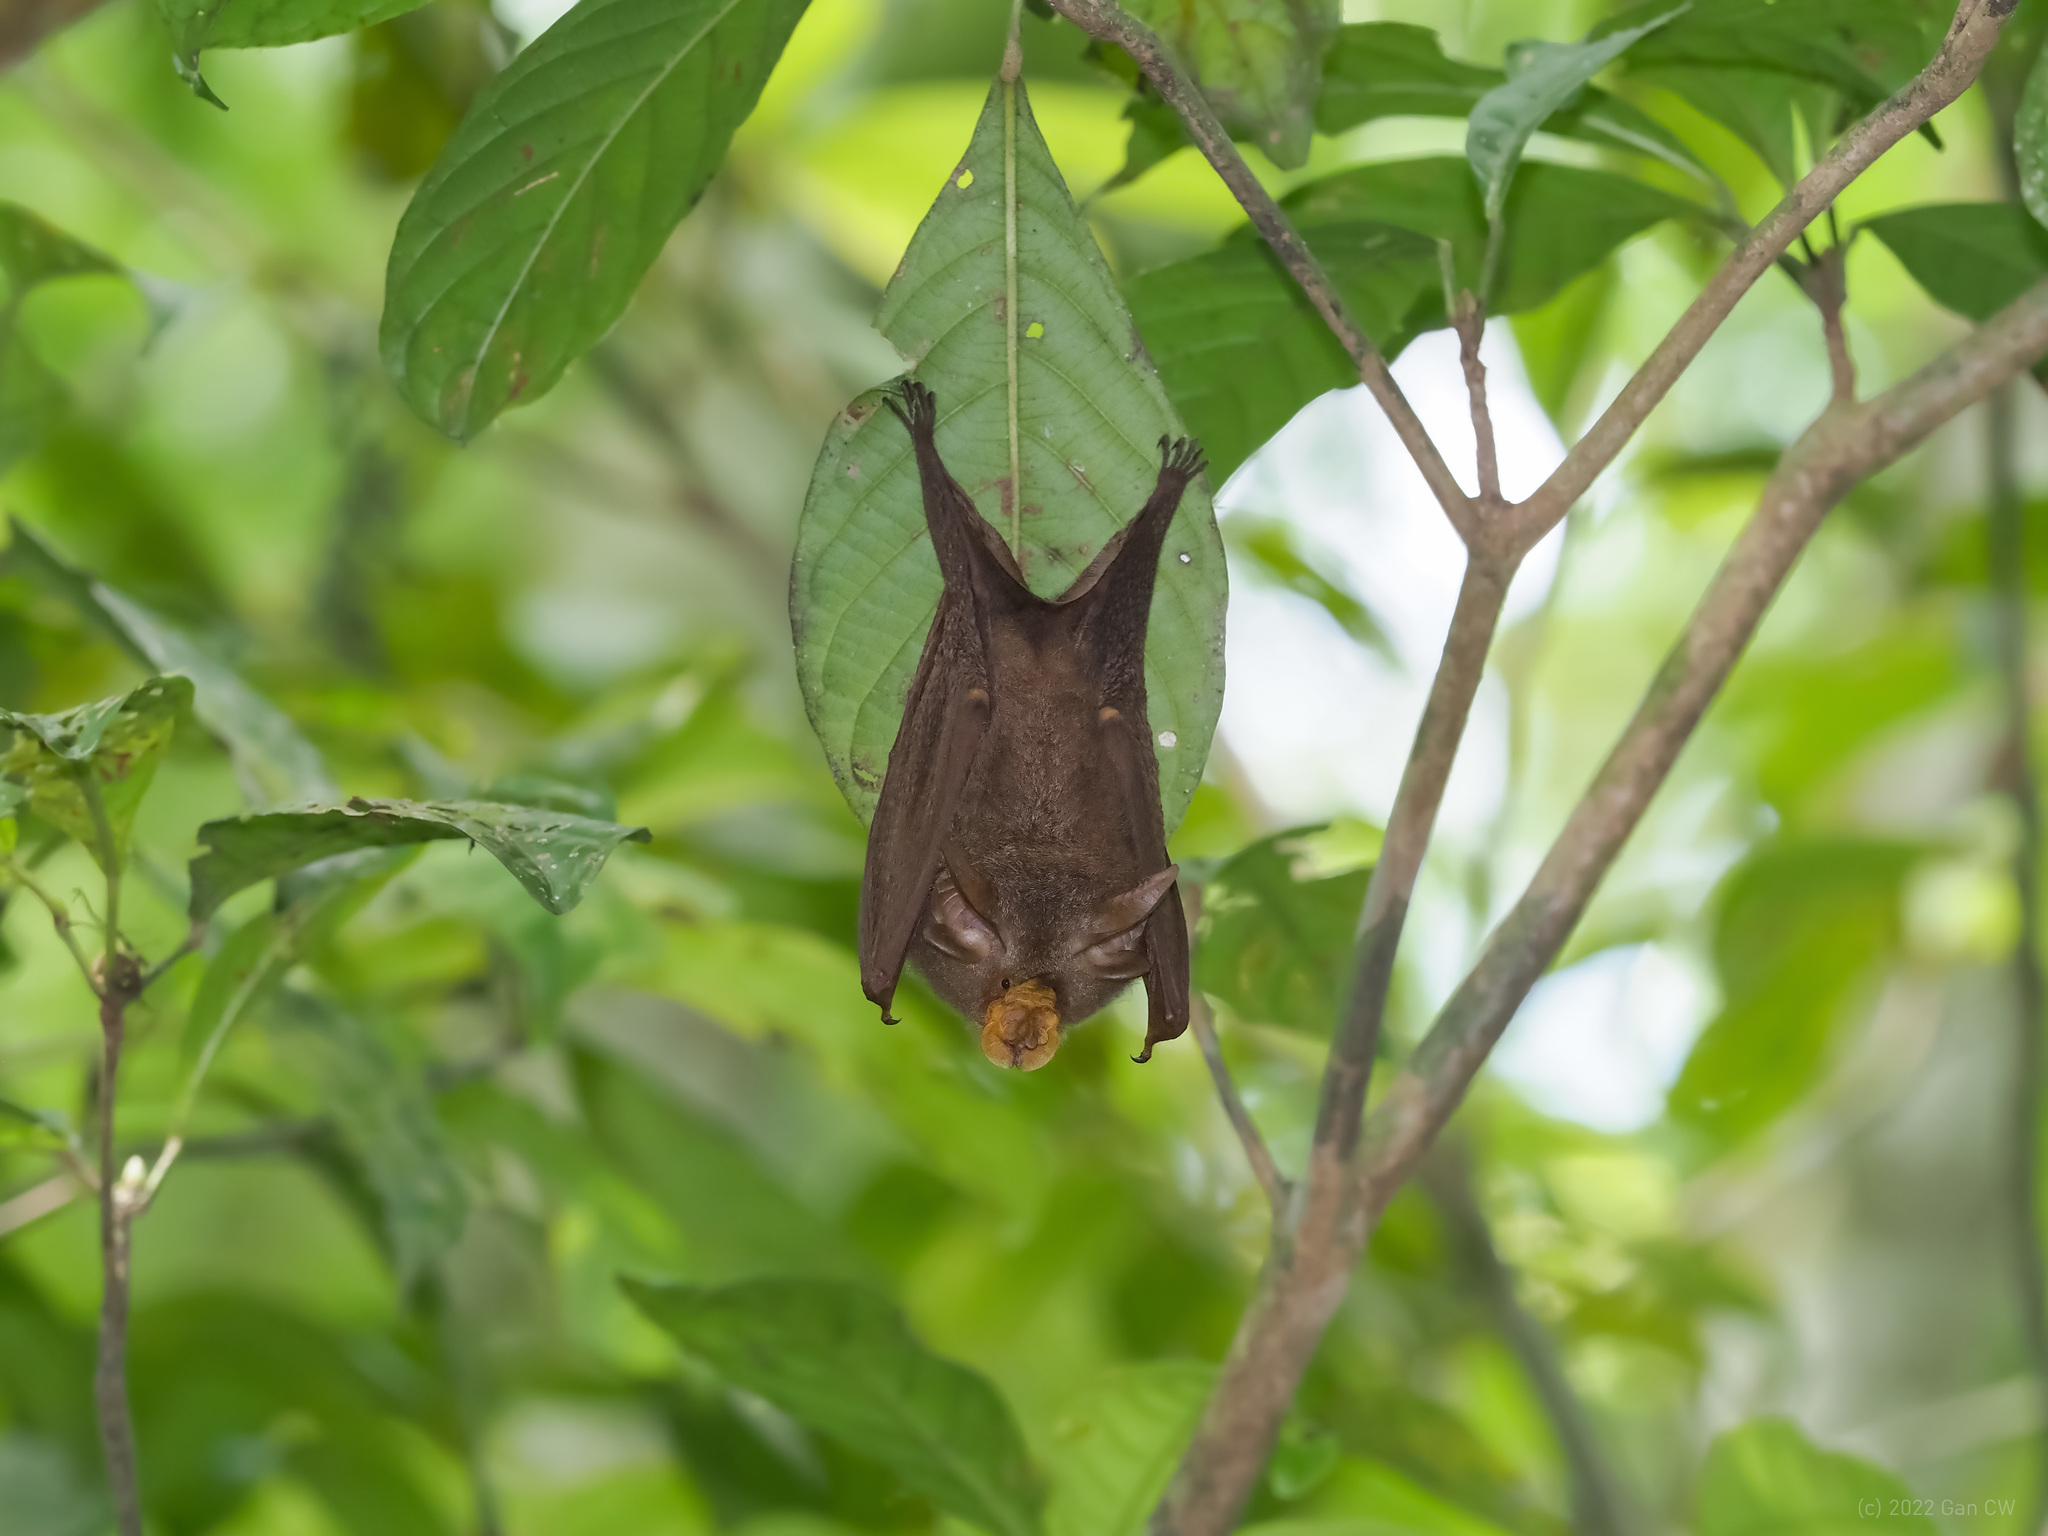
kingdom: Animalia
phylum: Chordata
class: Mammalia
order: Chiroptera
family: Rhinolophidae
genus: Rhinolophus
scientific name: Rhinolophus trifoliatus
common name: Trefoil horseshoe bat
